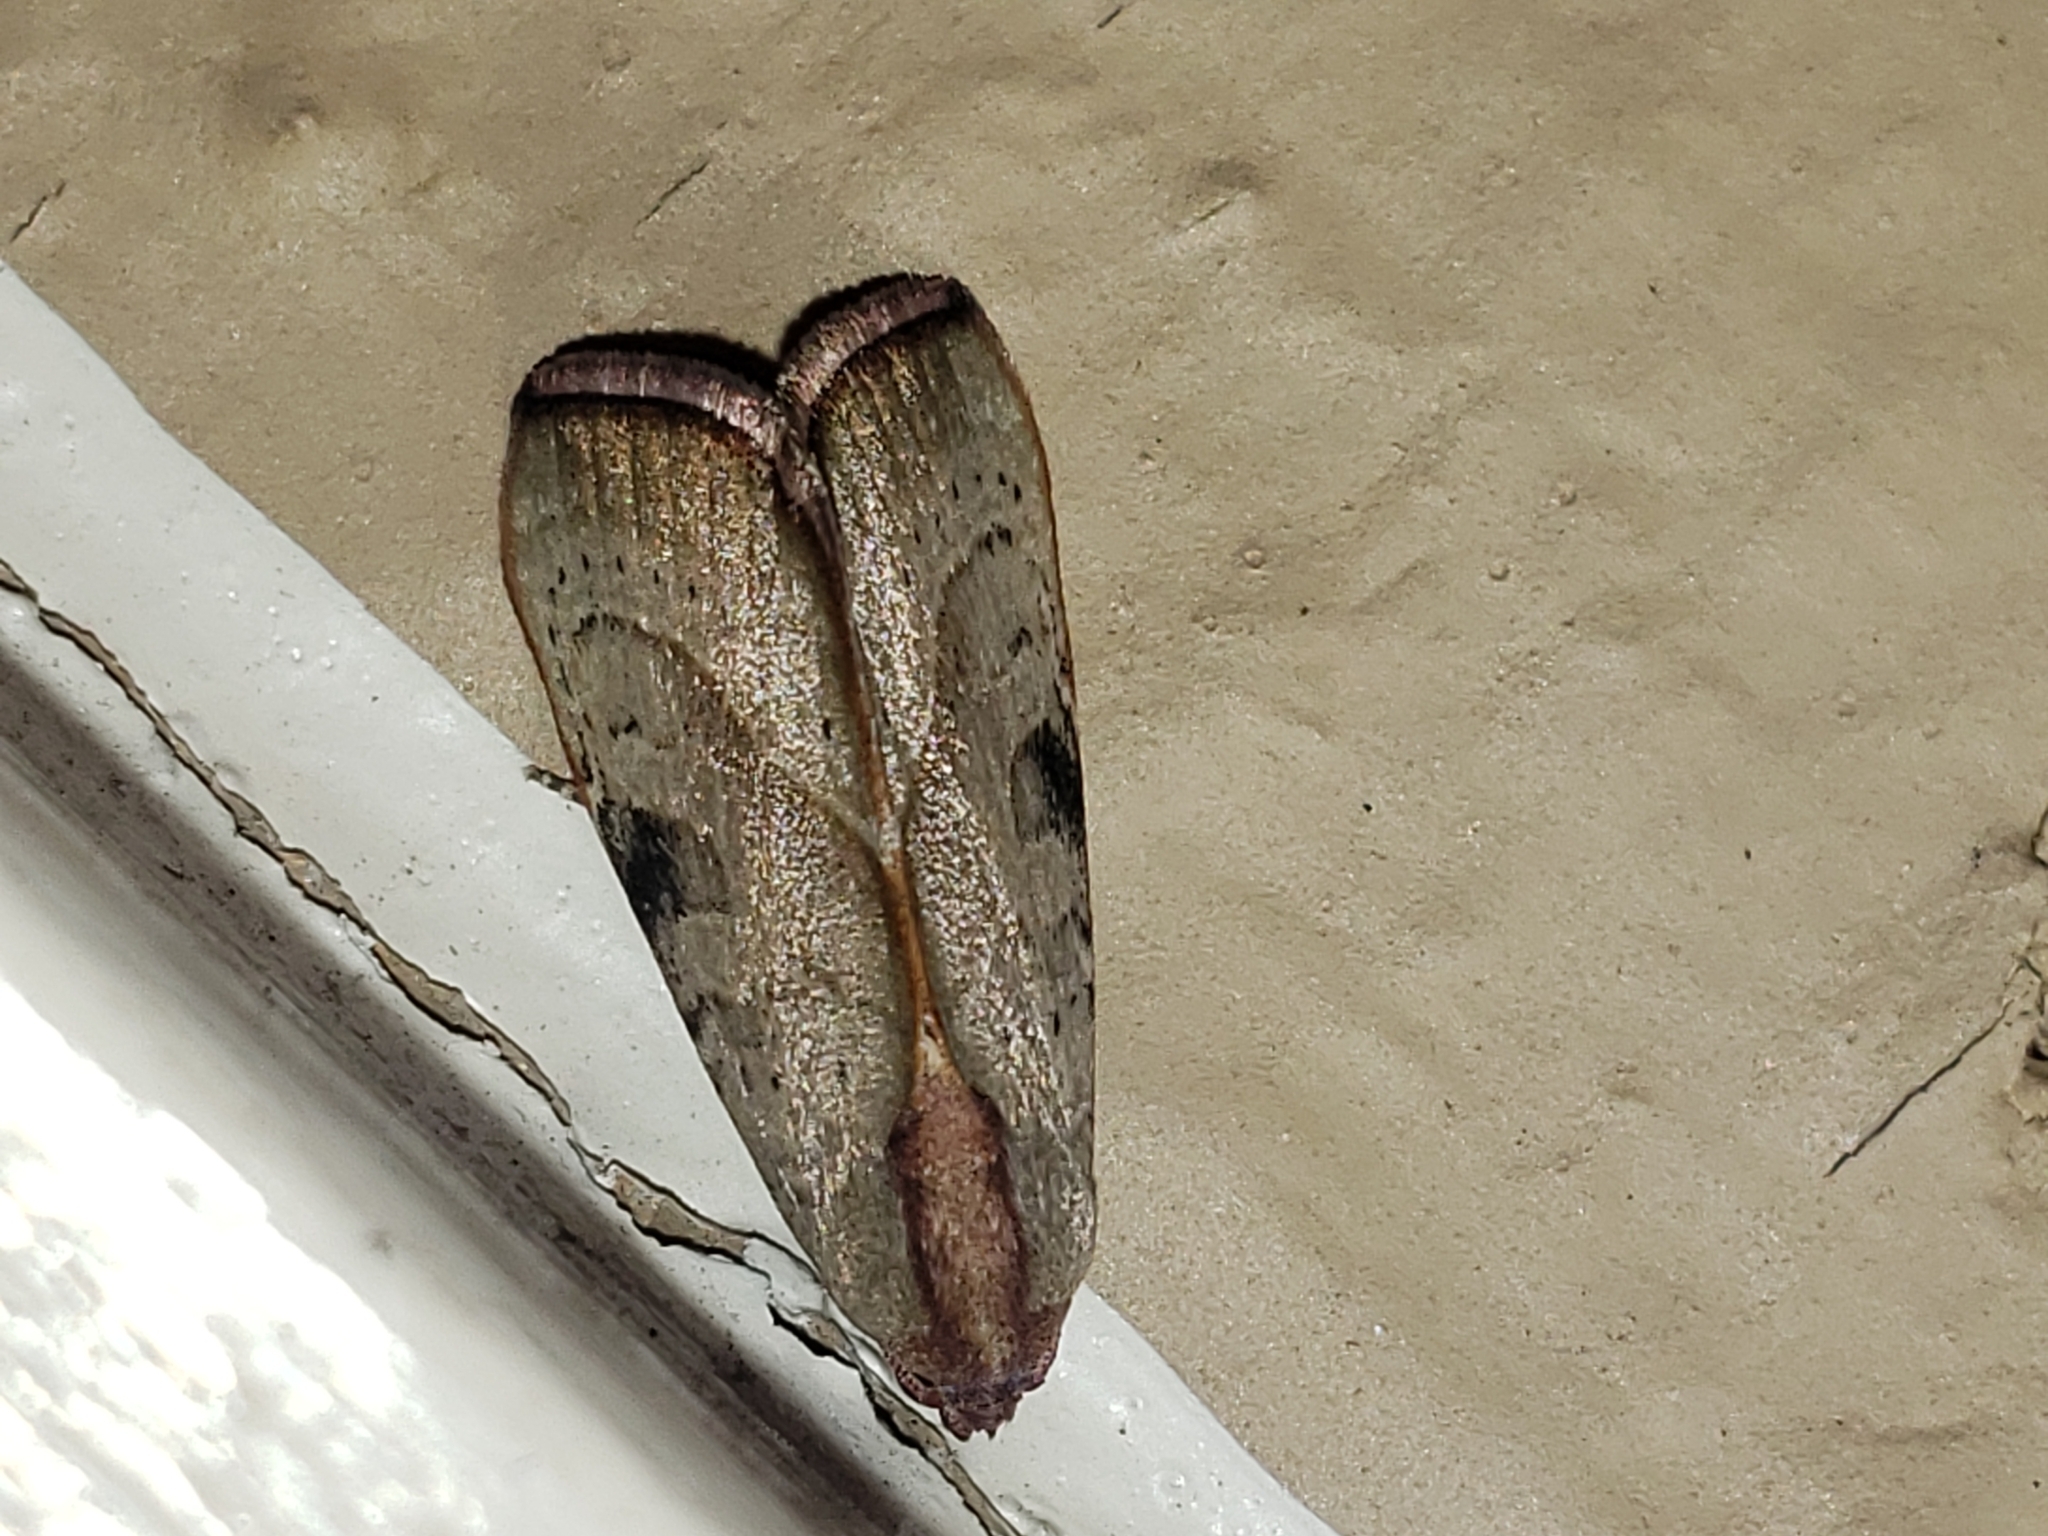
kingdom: Animalia
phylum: Arthropoda
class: Insecta
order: Lepidoptera
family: Noctuidae
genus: Galgula
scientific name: Galgula partita
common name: Wedgeling
